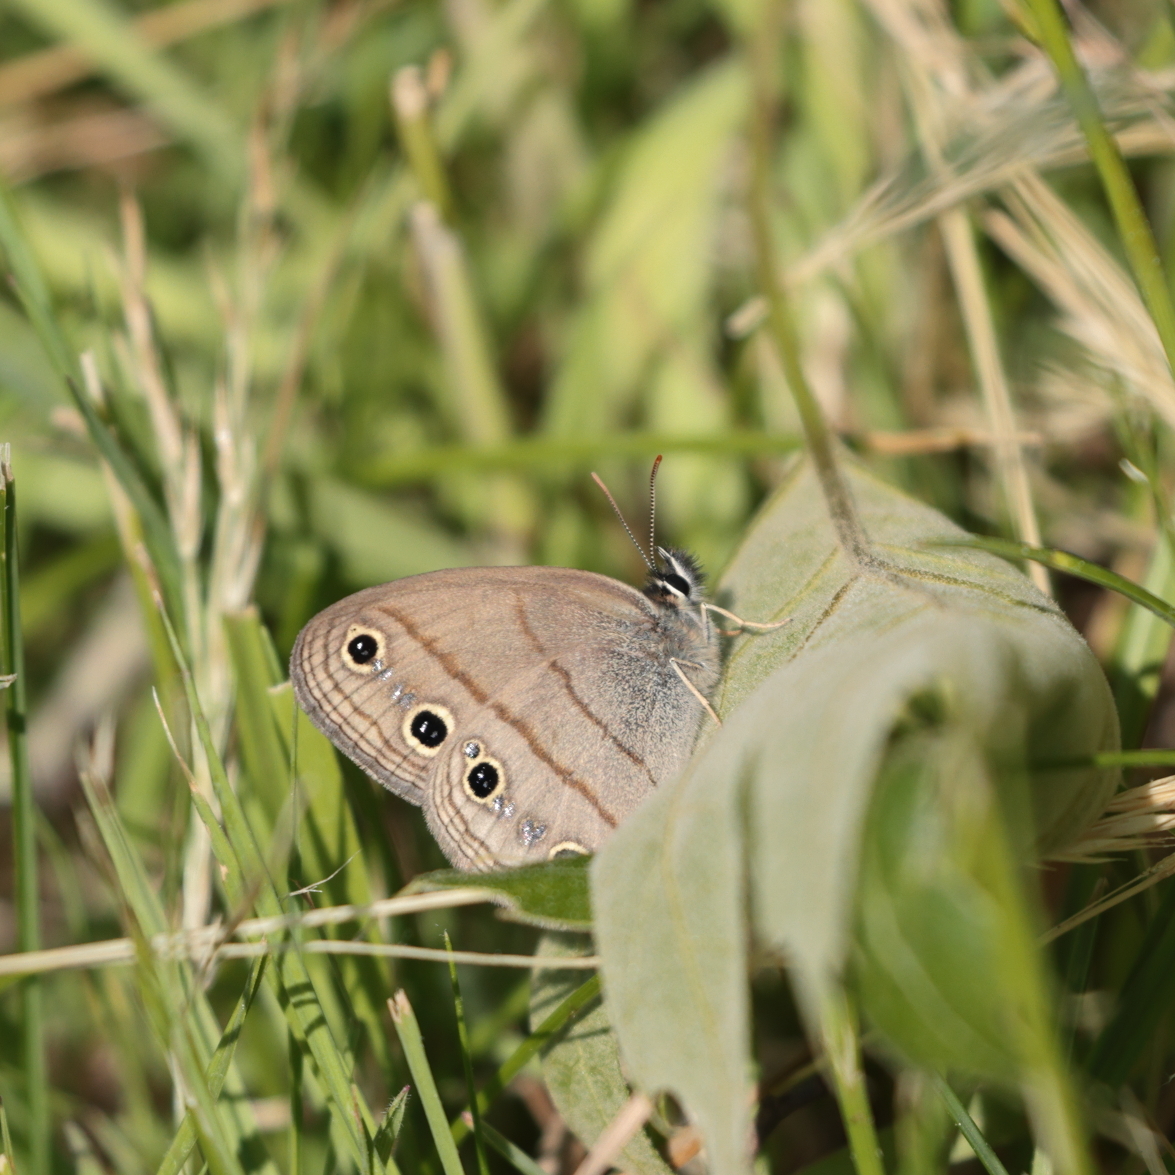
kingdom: Animalia
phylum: Arthropoda
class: Insecta
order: Lepidoptera
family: Nymphalidae
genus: Euptychia
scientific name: Euptychia cymela
